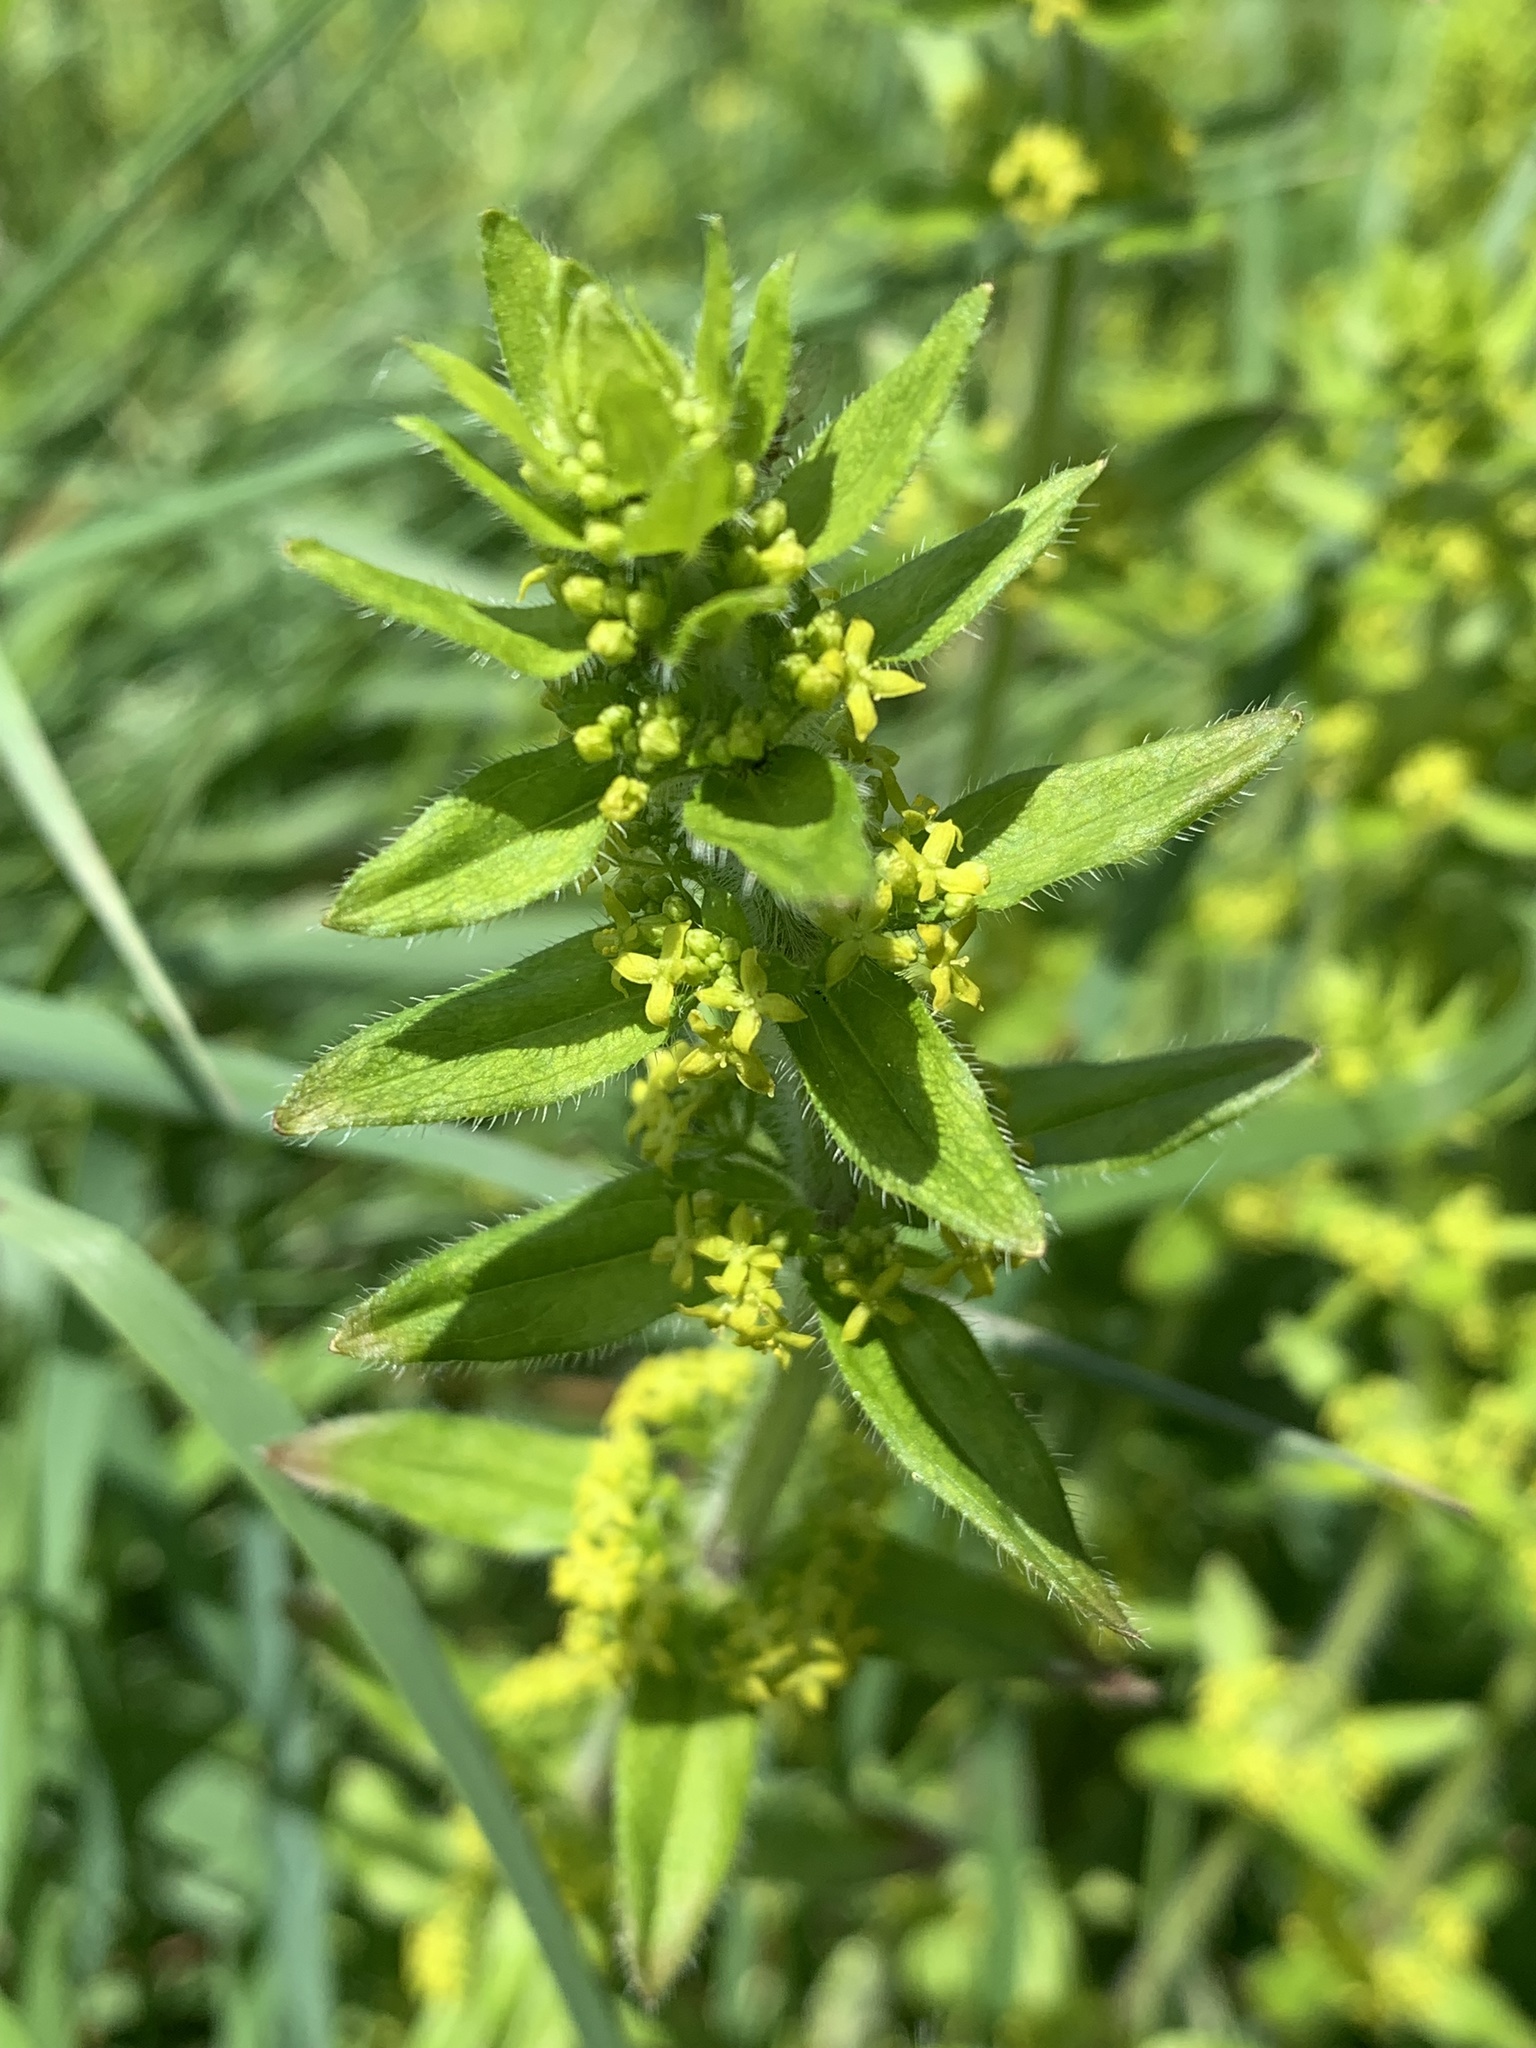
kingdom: Plantae
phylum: Tracheophyta
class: Magnoliopsida
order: Gentianales
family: Rubiaceae
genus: Cruciata
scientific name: Cruciata laevipes
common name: Crosswort
